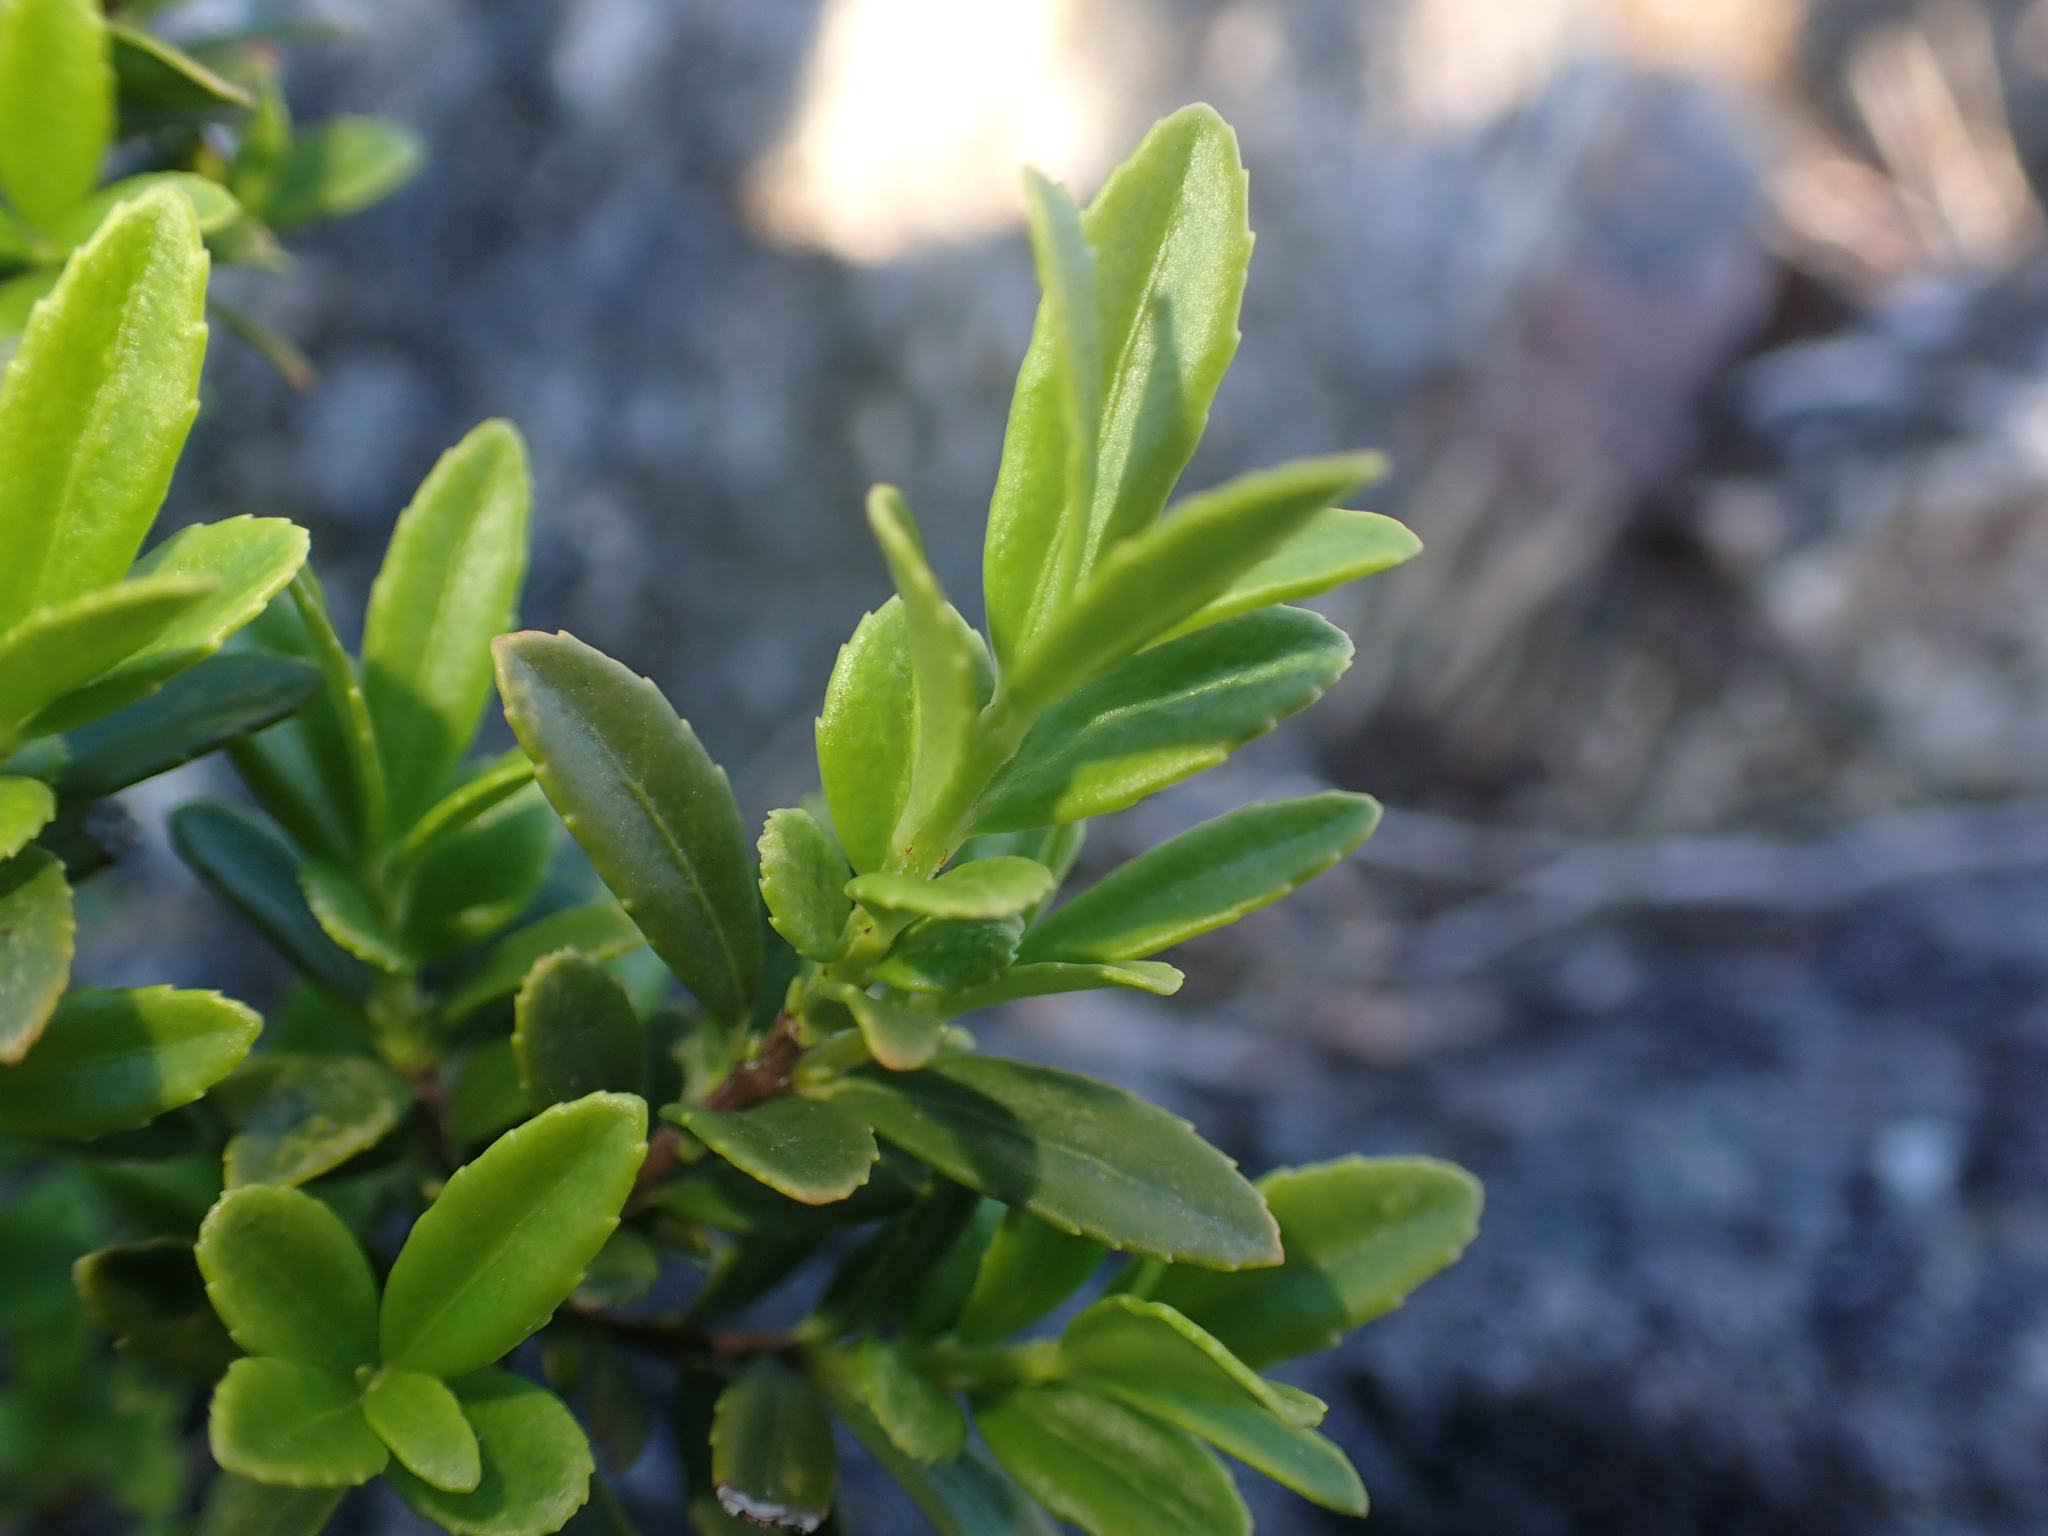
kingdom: Plantae
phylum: Tracheophyta
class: Magnoliopsida
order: Celastrales
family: Celastraceae
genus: Paxistima
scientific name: Paxistima myrsinites
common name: Mountain-lover
